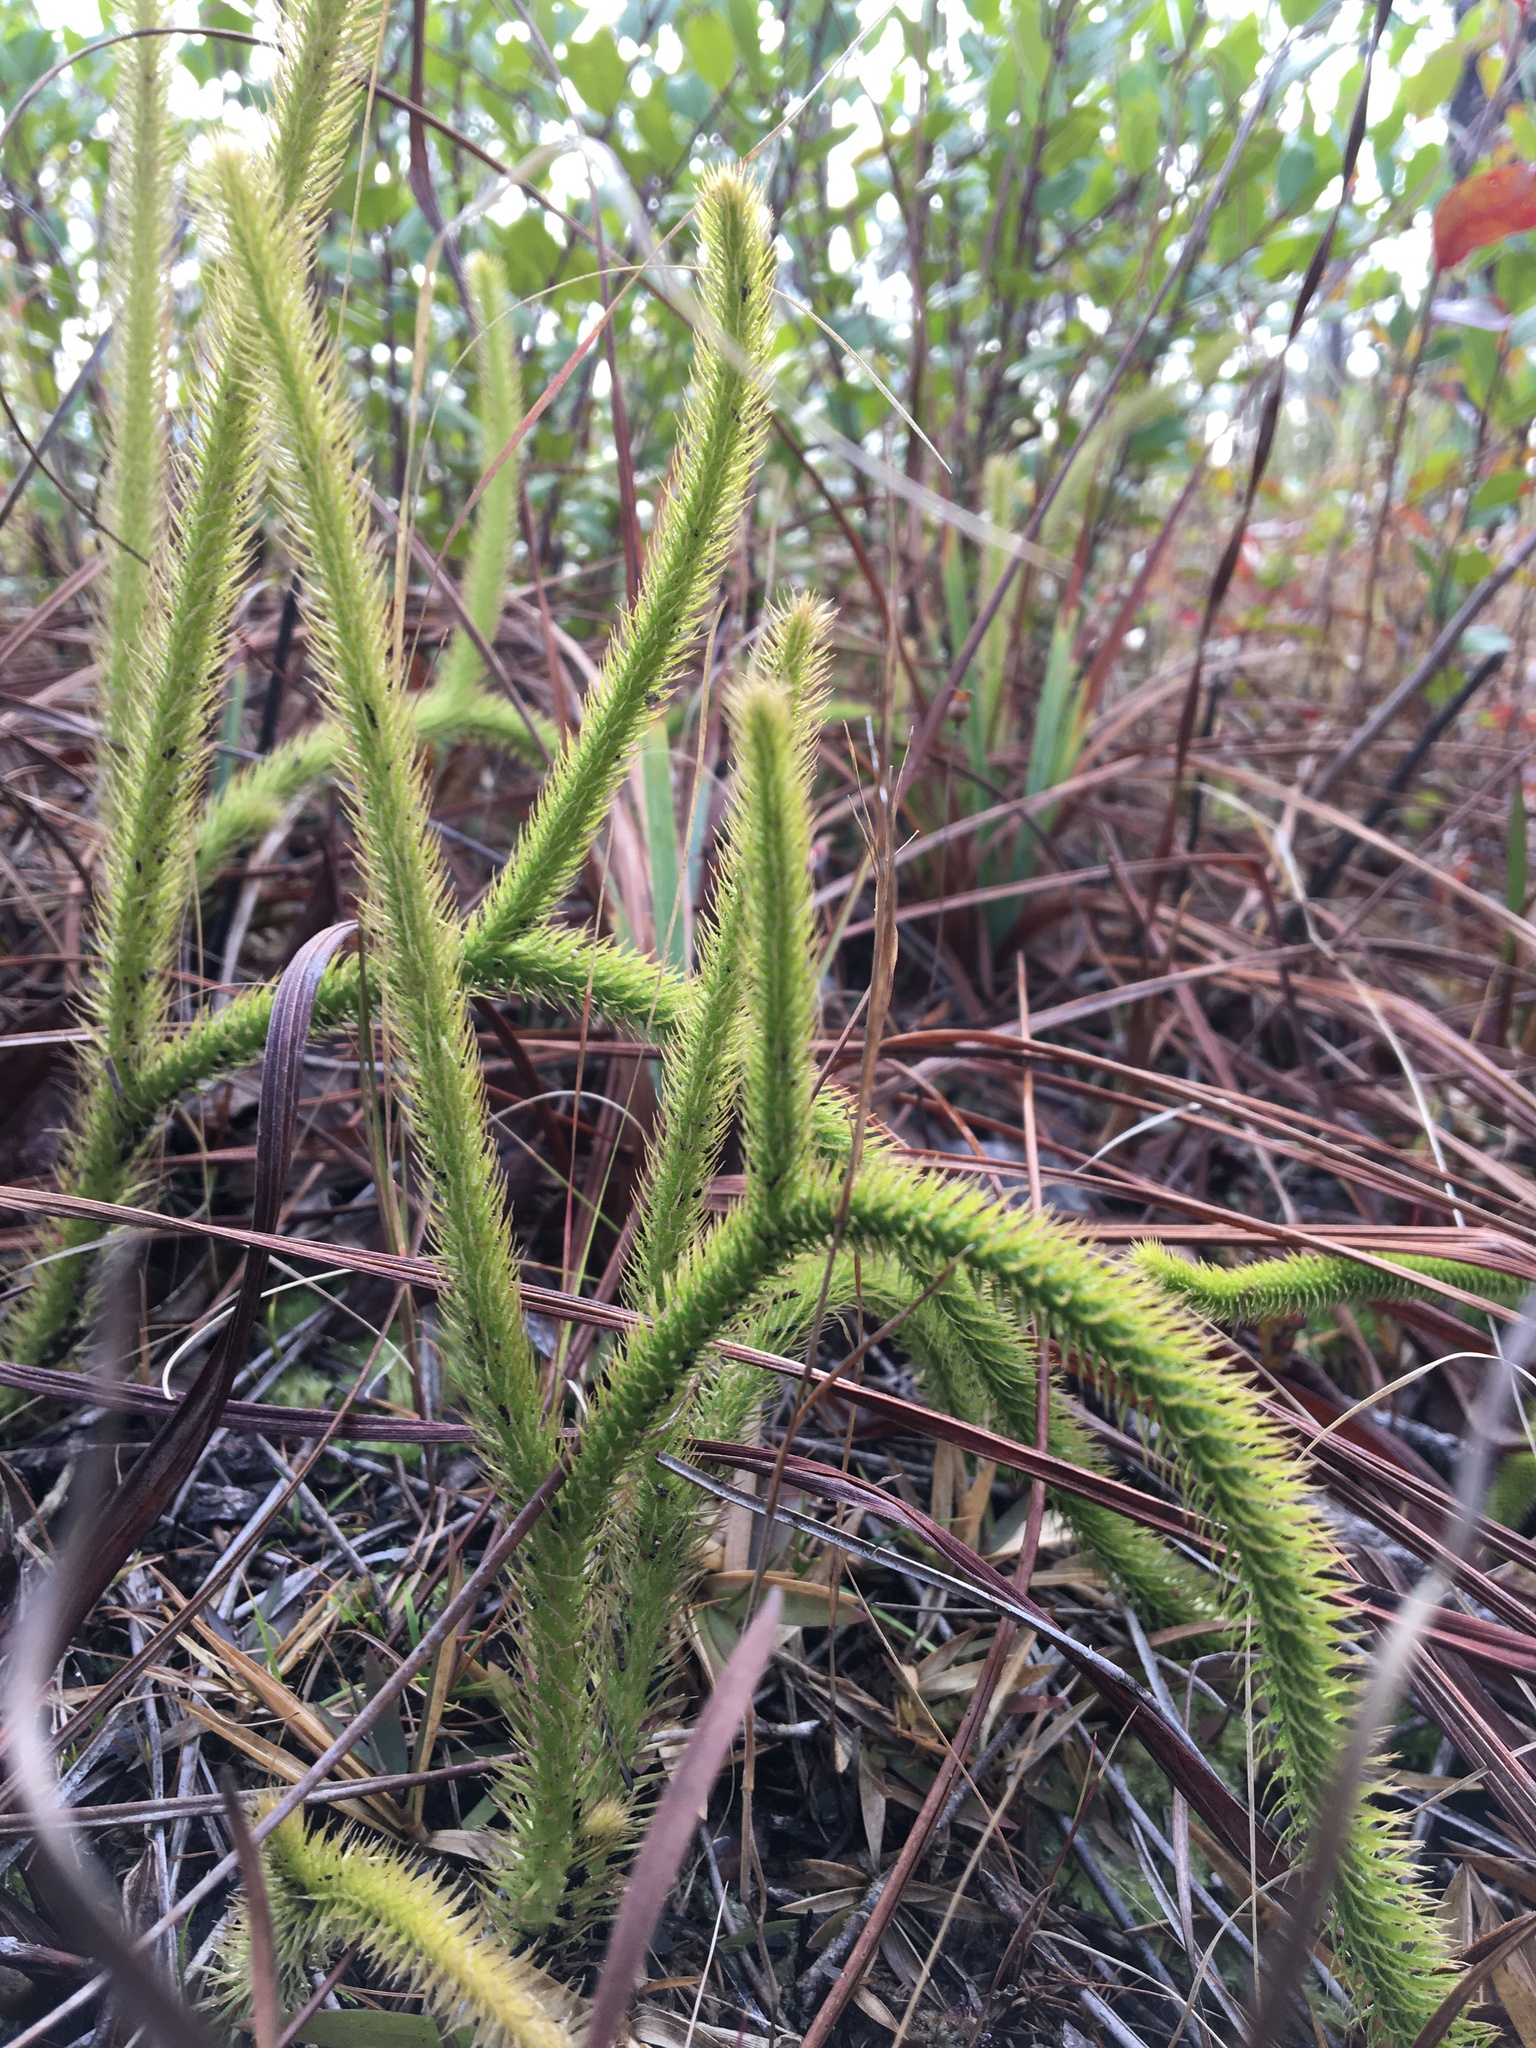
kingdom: Plantae
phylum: Tracheophyta
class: Lycopodiopsida
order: Lycopodiales
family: Lycopodiaceae
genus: Lycopodiella
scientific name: Lycopodiella alopecuroides
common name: Foxtail clubmoss
